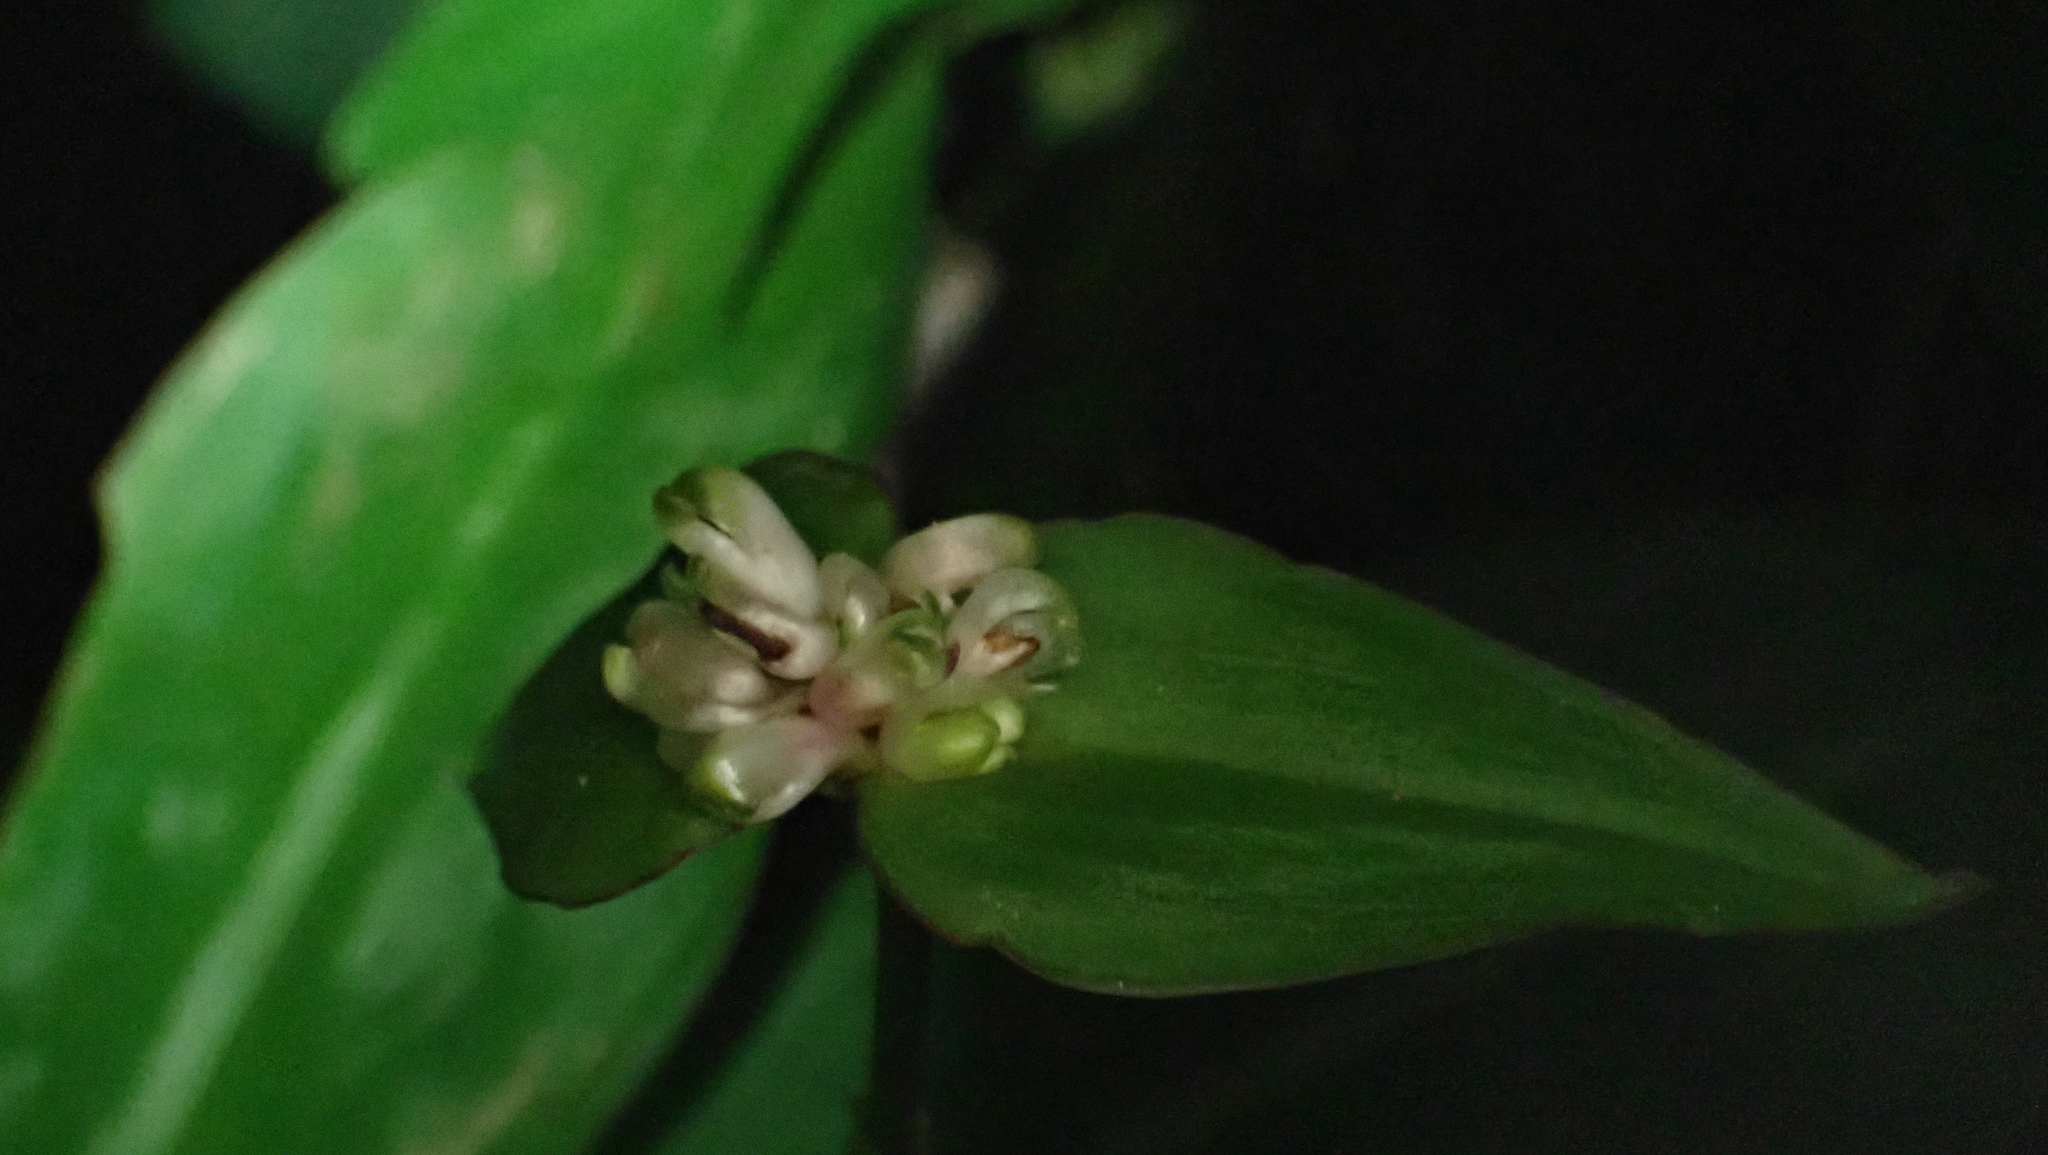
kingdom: Plantae
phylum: Tracheophyta
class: Liliopsida
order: Commelinales
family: Commelinaceae
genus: Tradescantia
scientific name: Tradescantia zanonia
